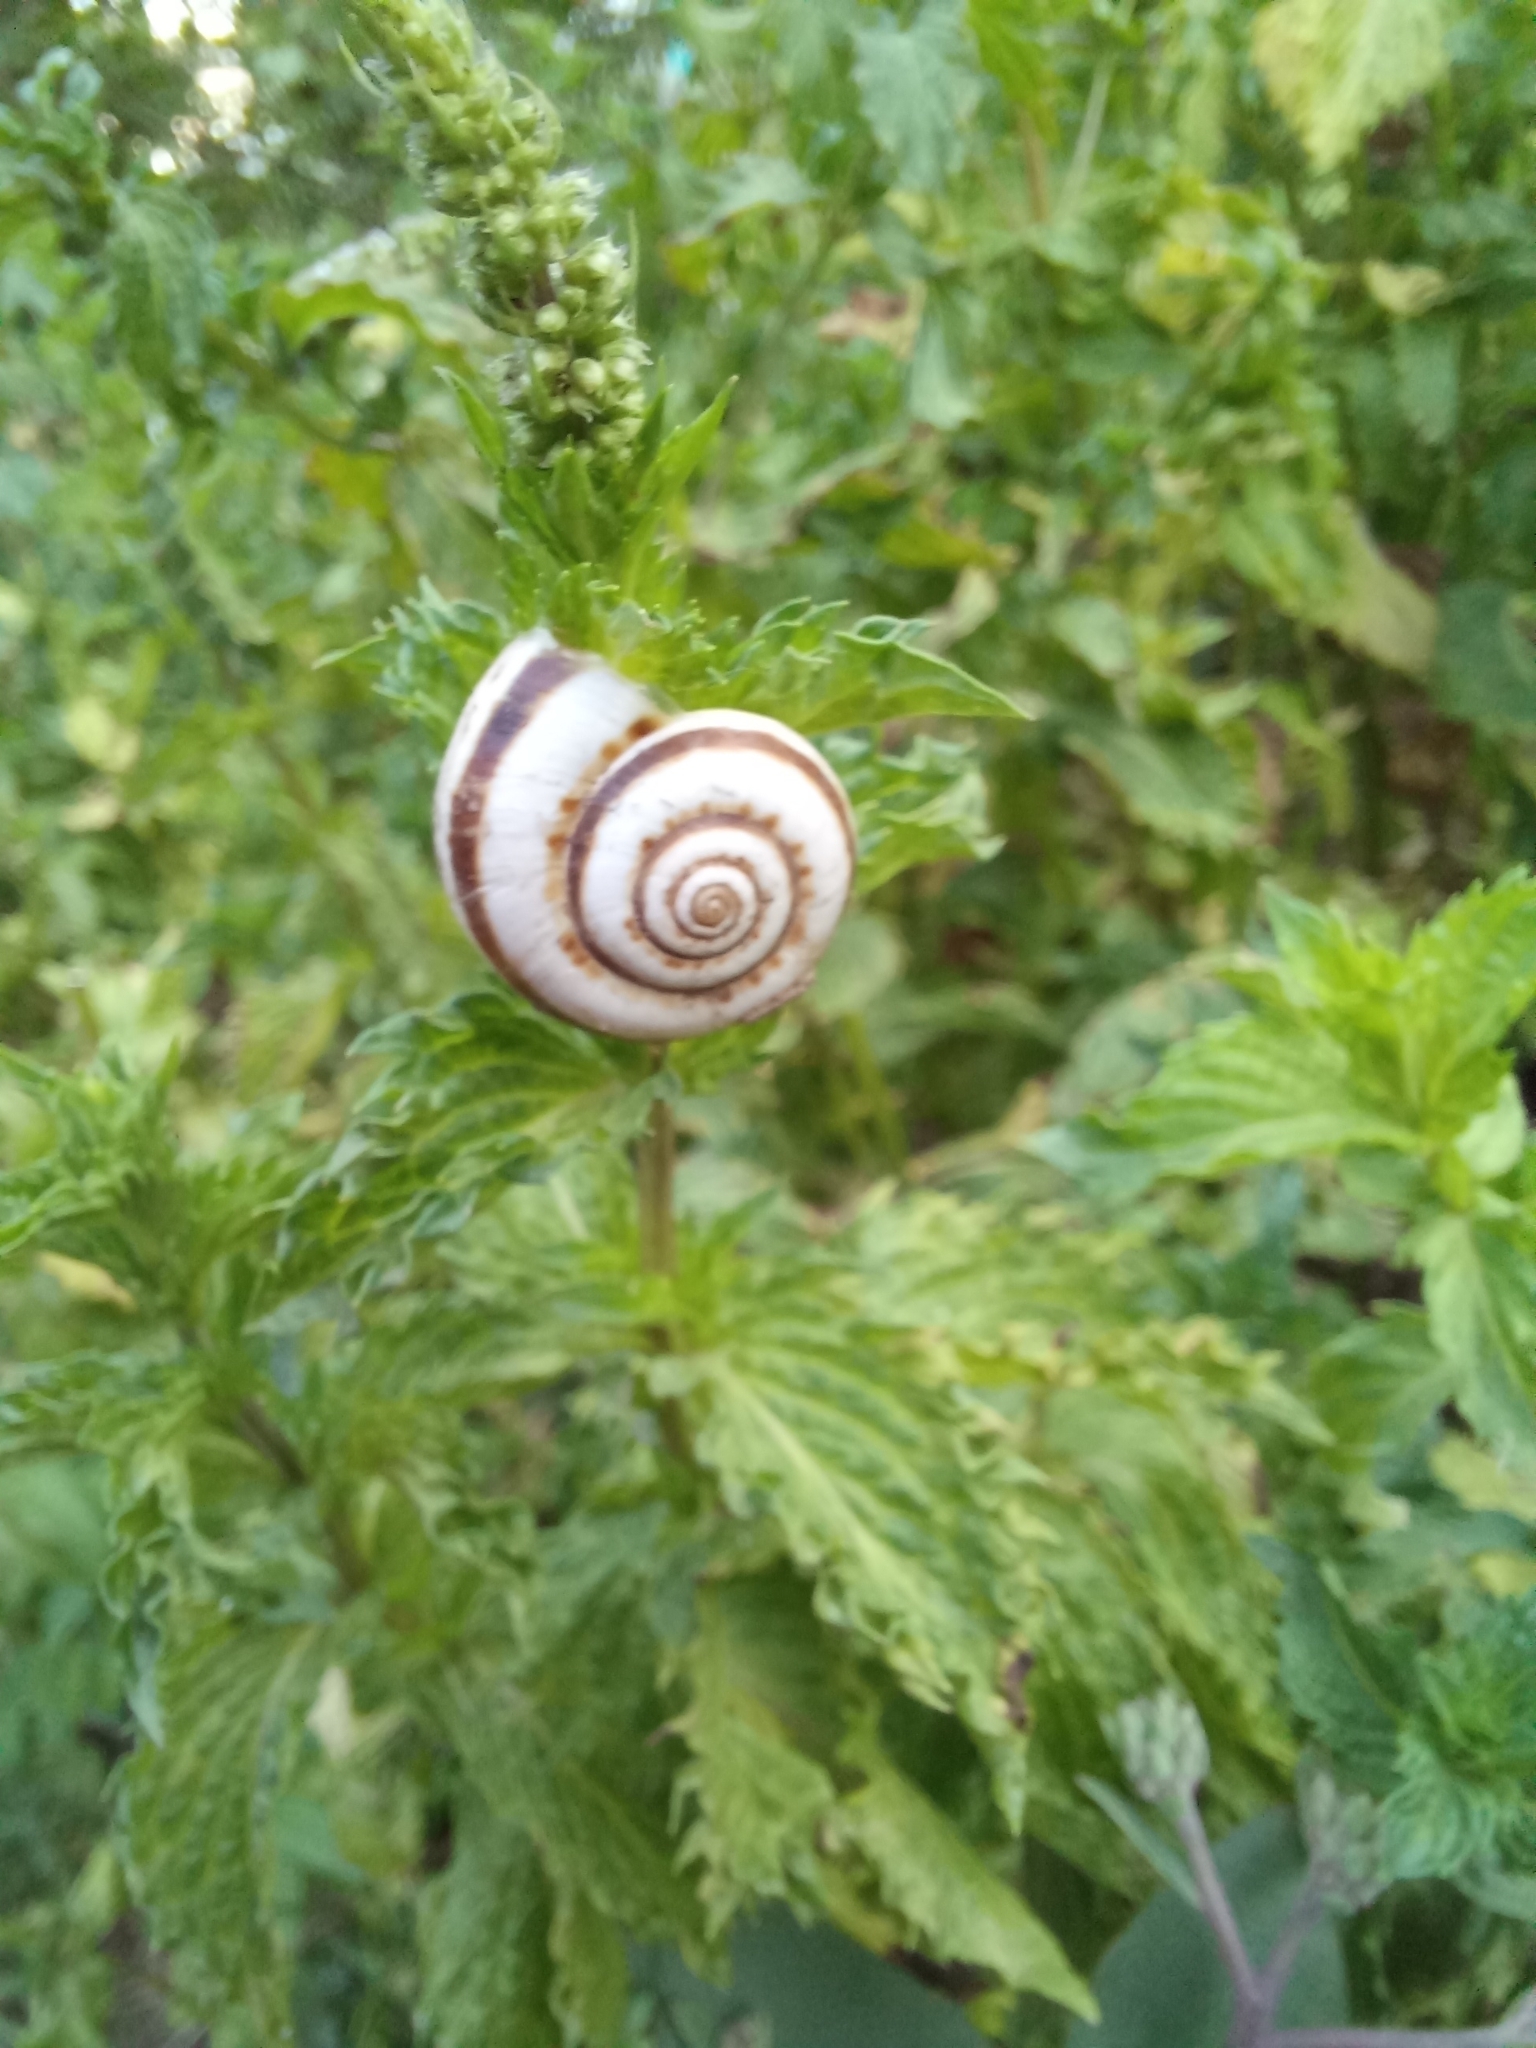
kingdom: Animalia
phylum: Mollusca
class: Gastropoda
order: Stylommatophora
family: Geomitridae
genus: Xeropicta
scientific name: Xeropicta derbentina
